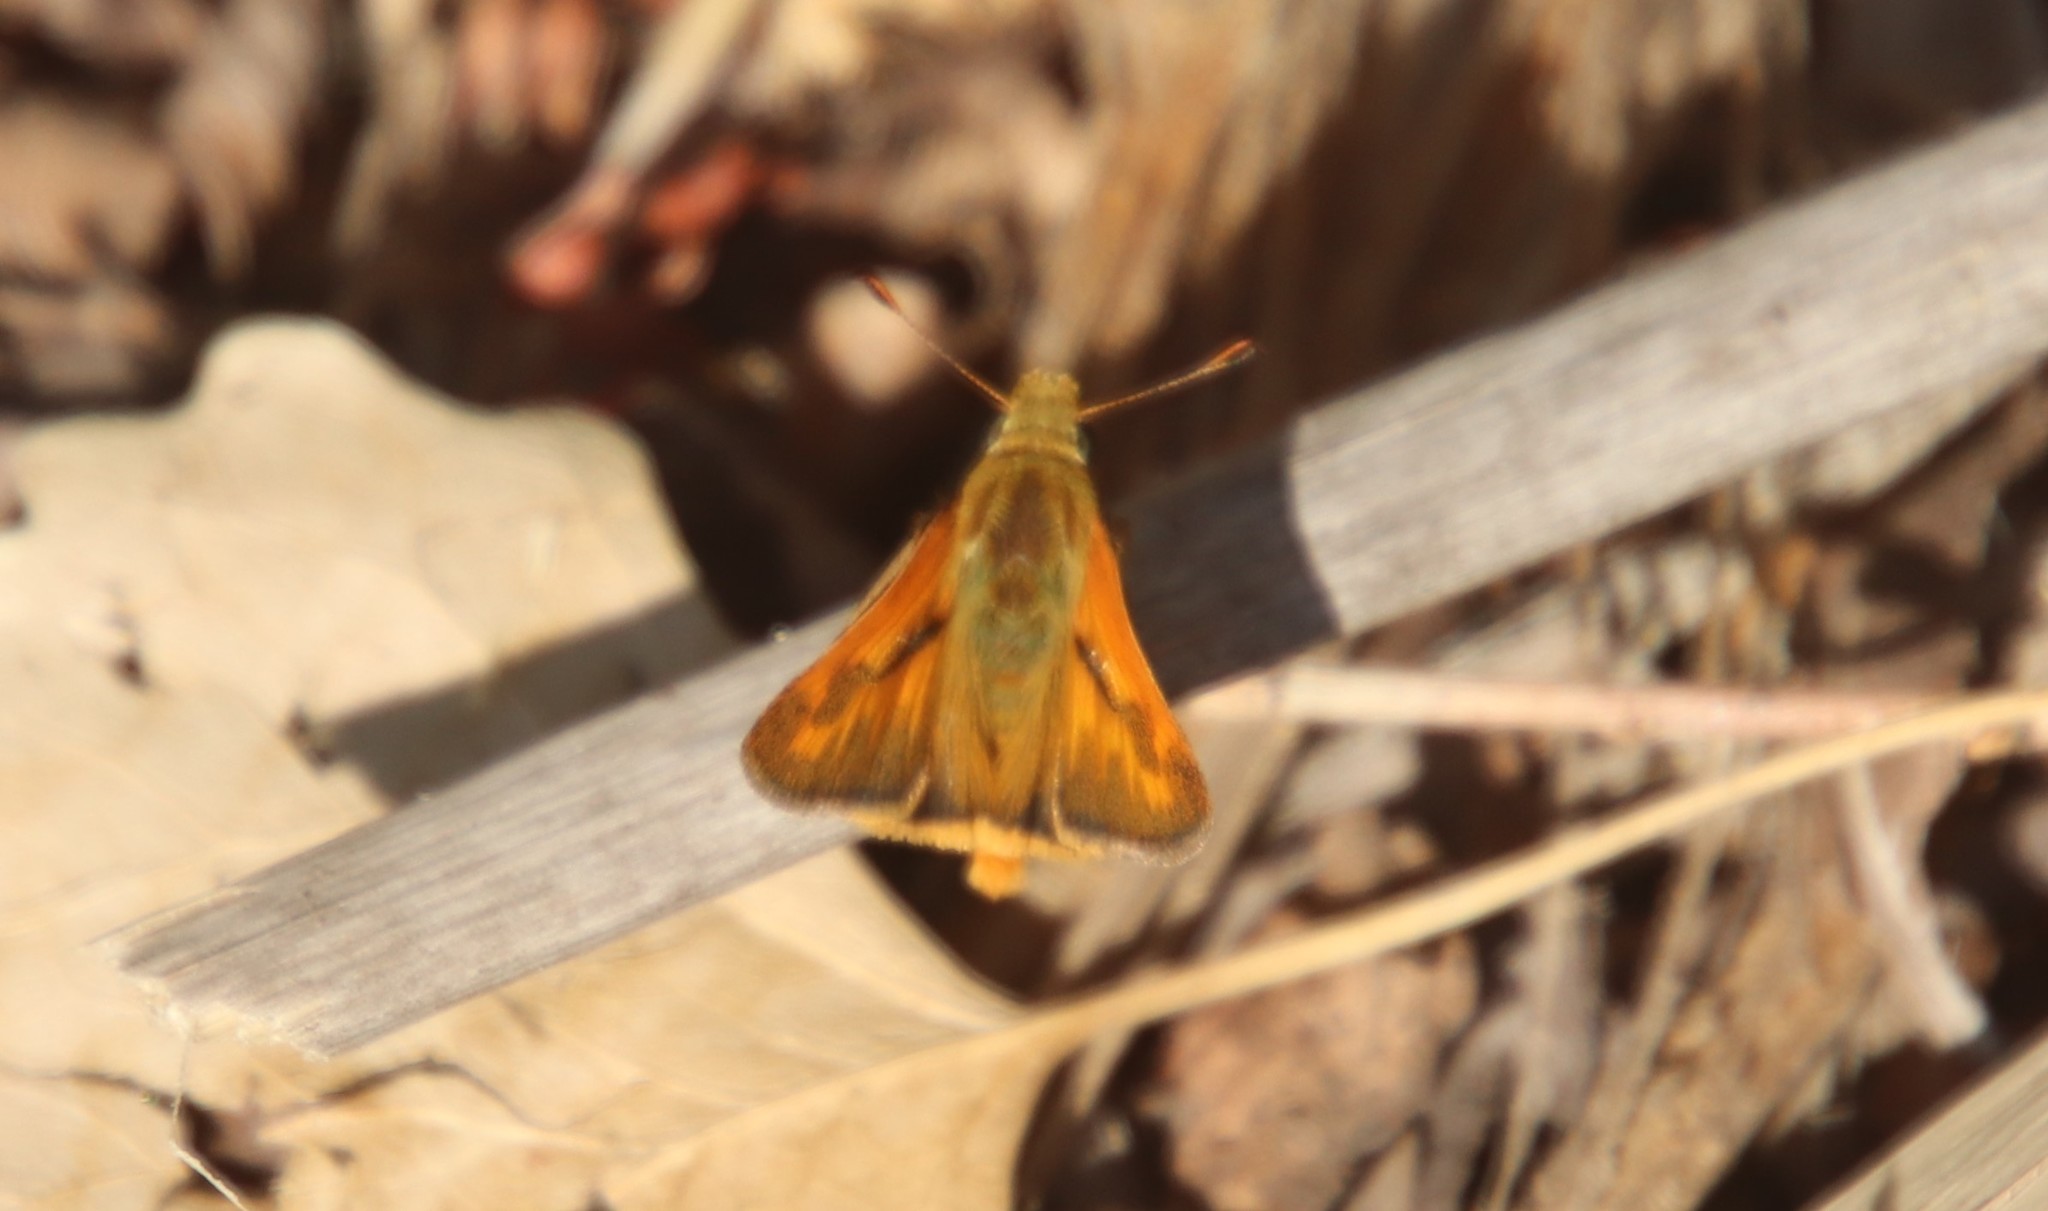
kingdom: Animalia
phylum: Arthropoda
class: Insecta
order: Lepidoptera
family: Hesperiidae
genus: Ochlodes
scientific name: Ochlodes sylvanoides
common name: Woodland skipper
